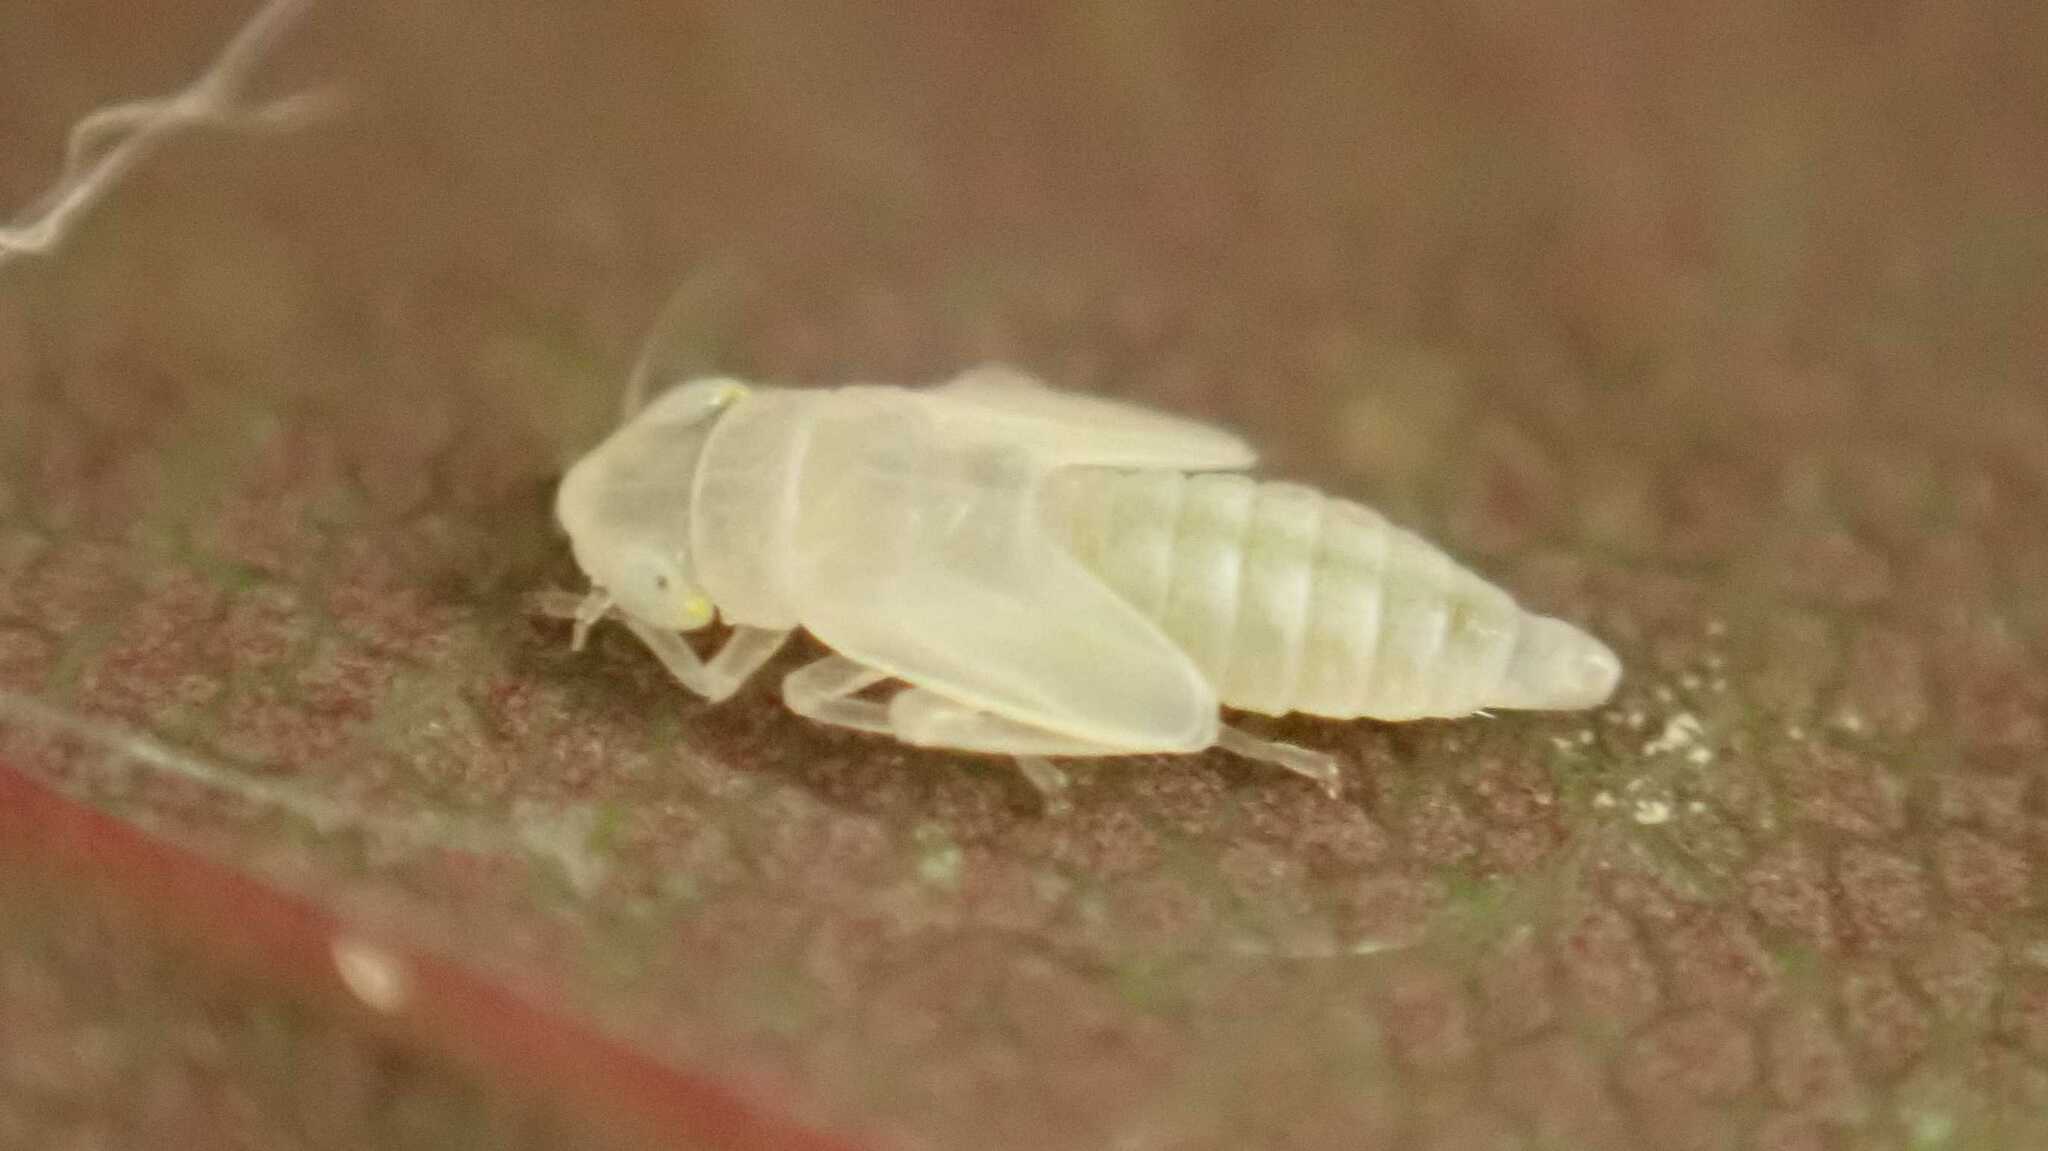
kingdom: Animalia
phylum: Arthropoda
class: Insecta
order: Hemiptera
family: Cicadellidae
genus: Zyginella
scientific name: Zyginella pulchra
